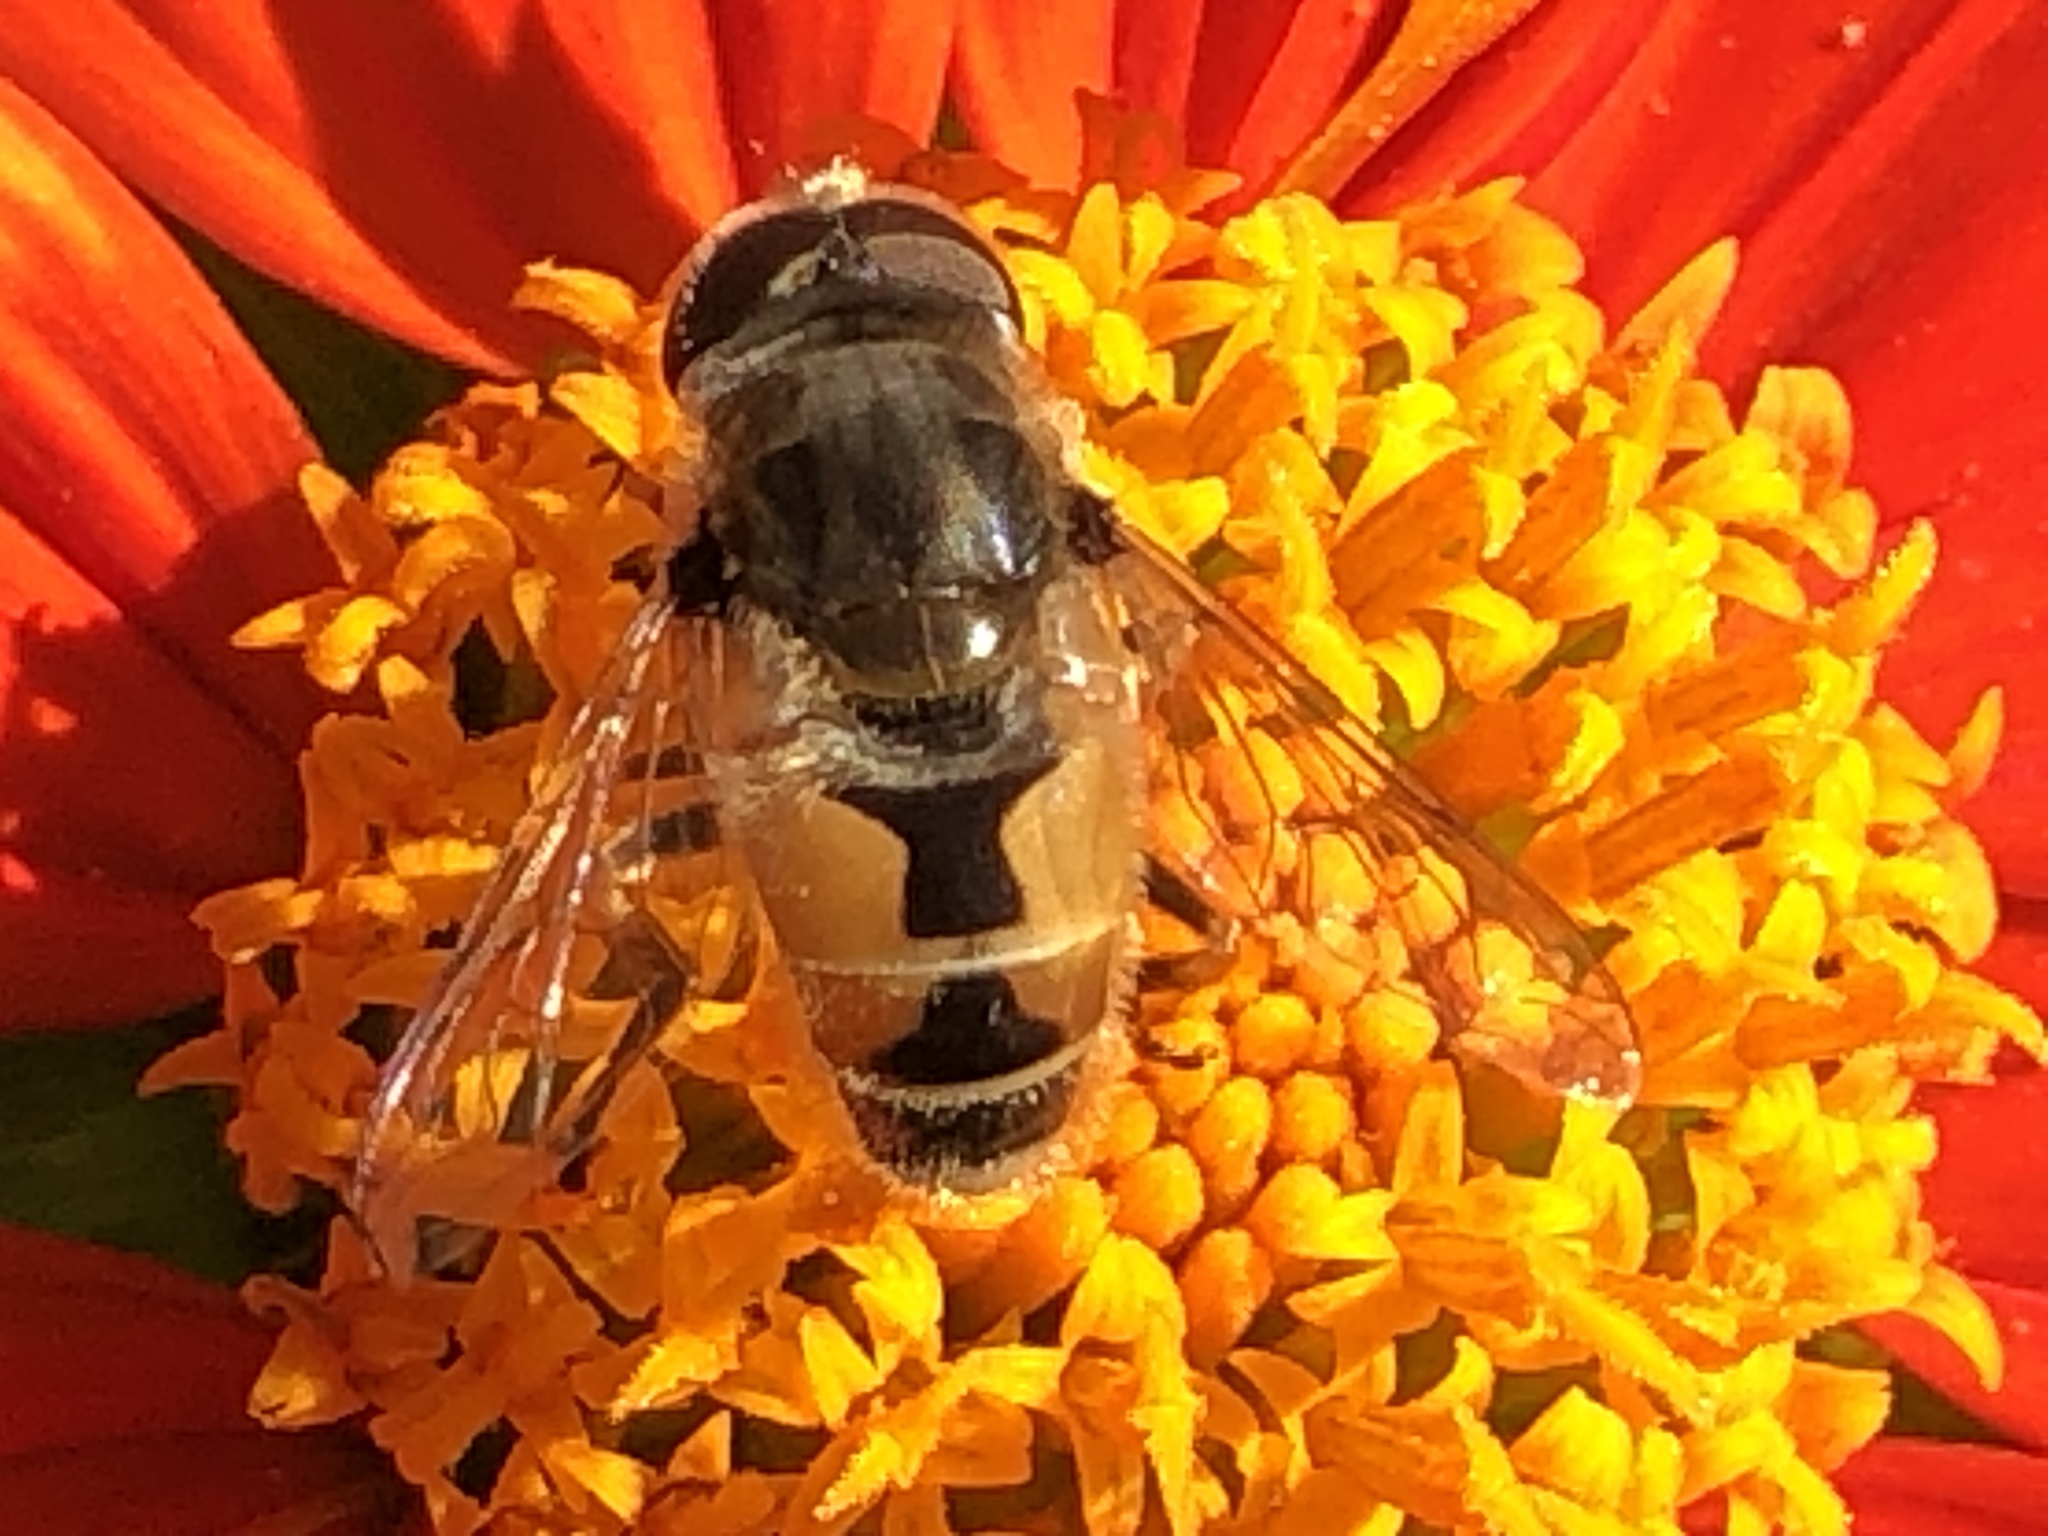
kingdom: Animalia
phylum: Arthropoda
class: Insecta
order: Diptera
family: Syrphidae
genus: Eristalis
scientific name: Eristalis arbustorum
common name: Hover fly
